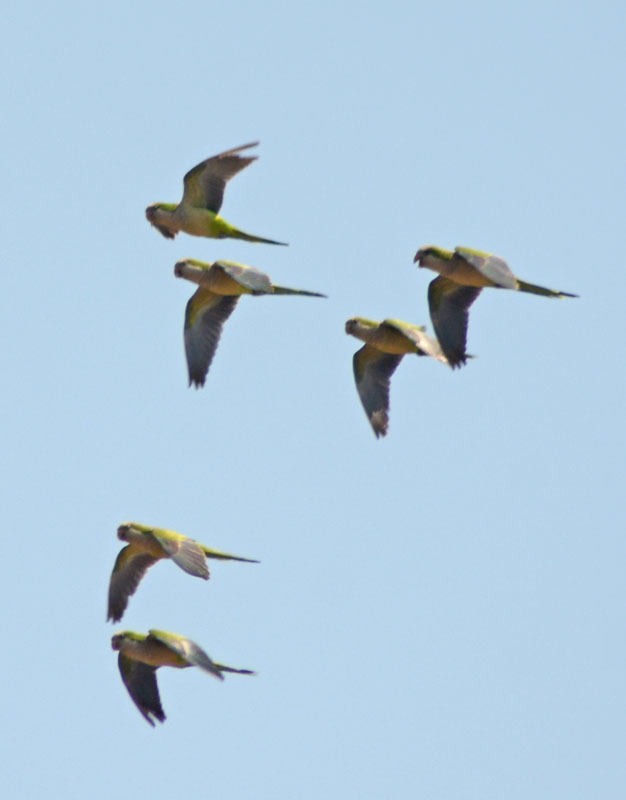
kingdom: Animalia
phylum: Chordata
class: Aves
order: Psittaciformes
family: Psittacidae
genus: Myiopsitta
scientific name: Myiopsitta monachus
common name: Monk parakeet
